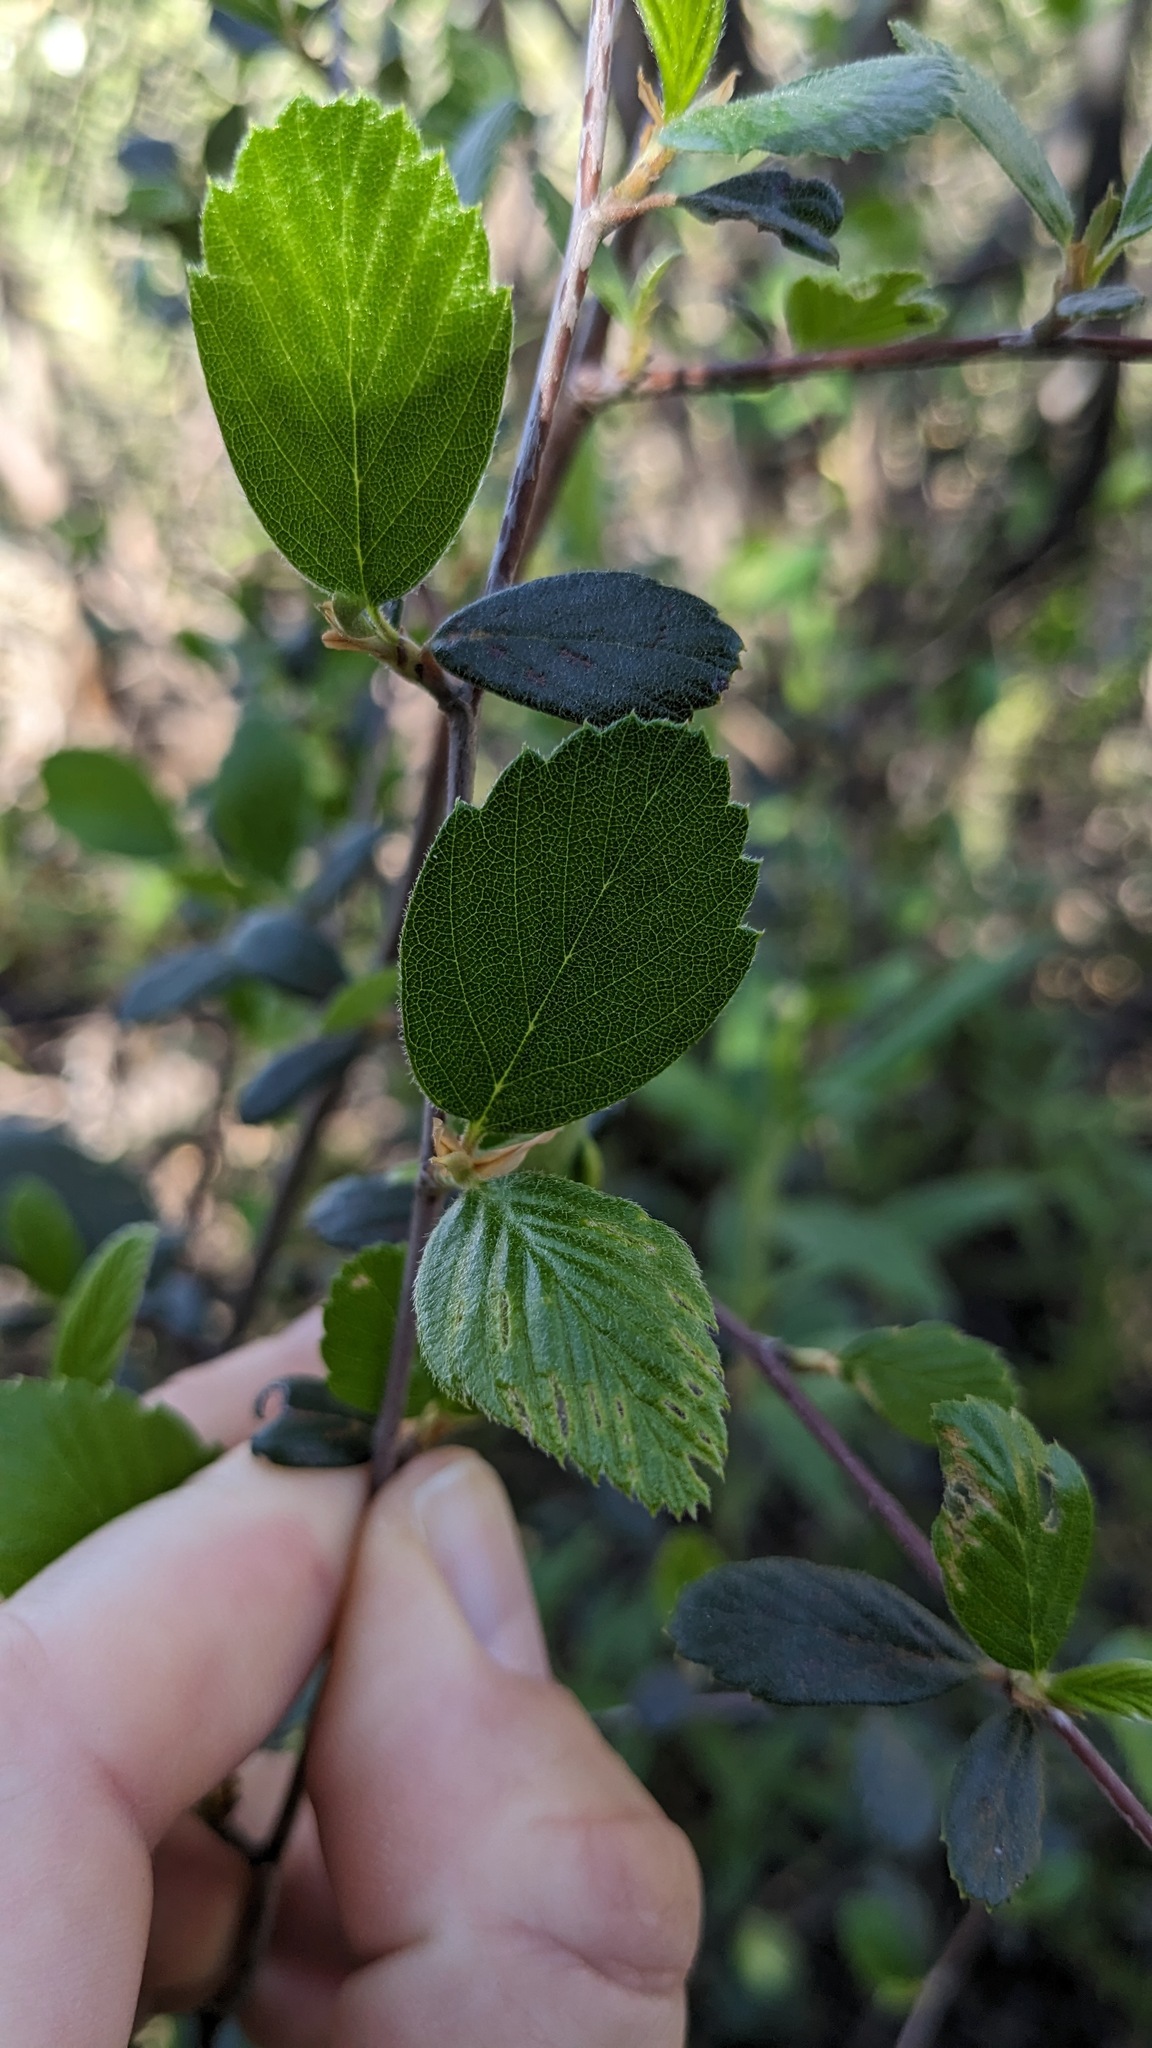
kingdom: Plantae
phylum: Tracheophyta
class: Magnoliopsida
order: Rosales
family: Rosaceae
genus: Cercocarpus
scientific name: Cercocarpus betuloides
